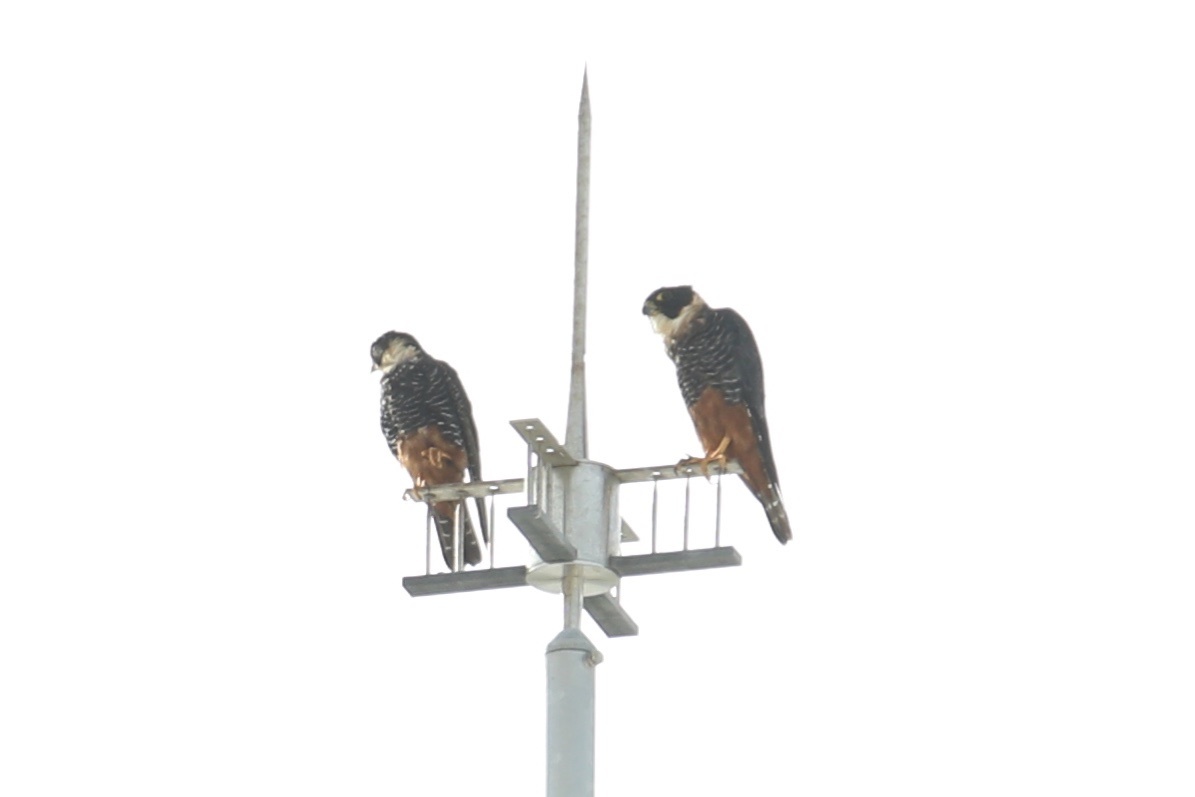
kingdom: Animalia
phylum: Chordata
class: Aves
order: Falconiformes
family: Falconidae
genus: Falco
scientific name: Falco rufigularis
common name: Bat falcon
